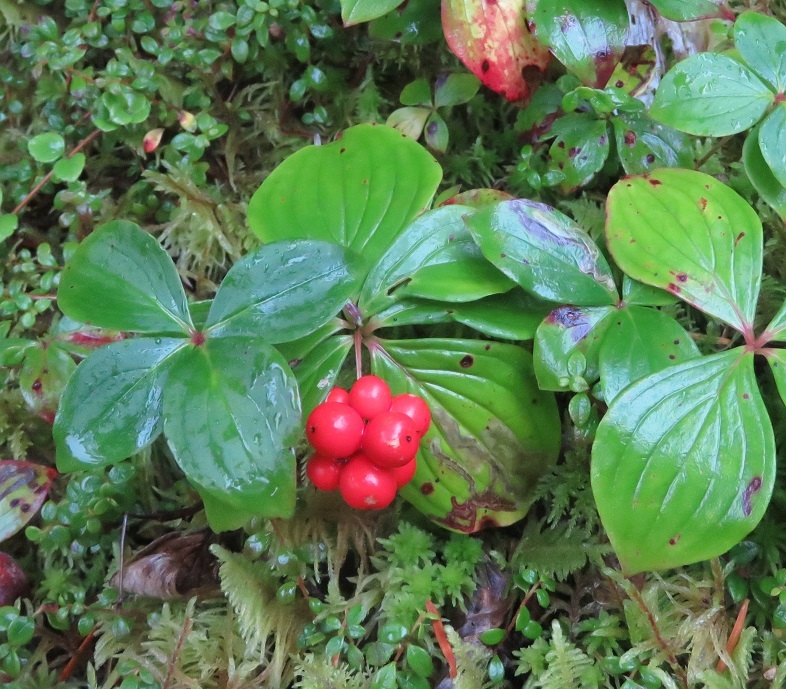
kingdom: Plantae
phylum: Tracheophyta
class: Magnoliopsida
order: Cornales
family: Cornaceae
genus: Cornus
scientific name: Cornus canadensis
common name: Creeping dogwood
